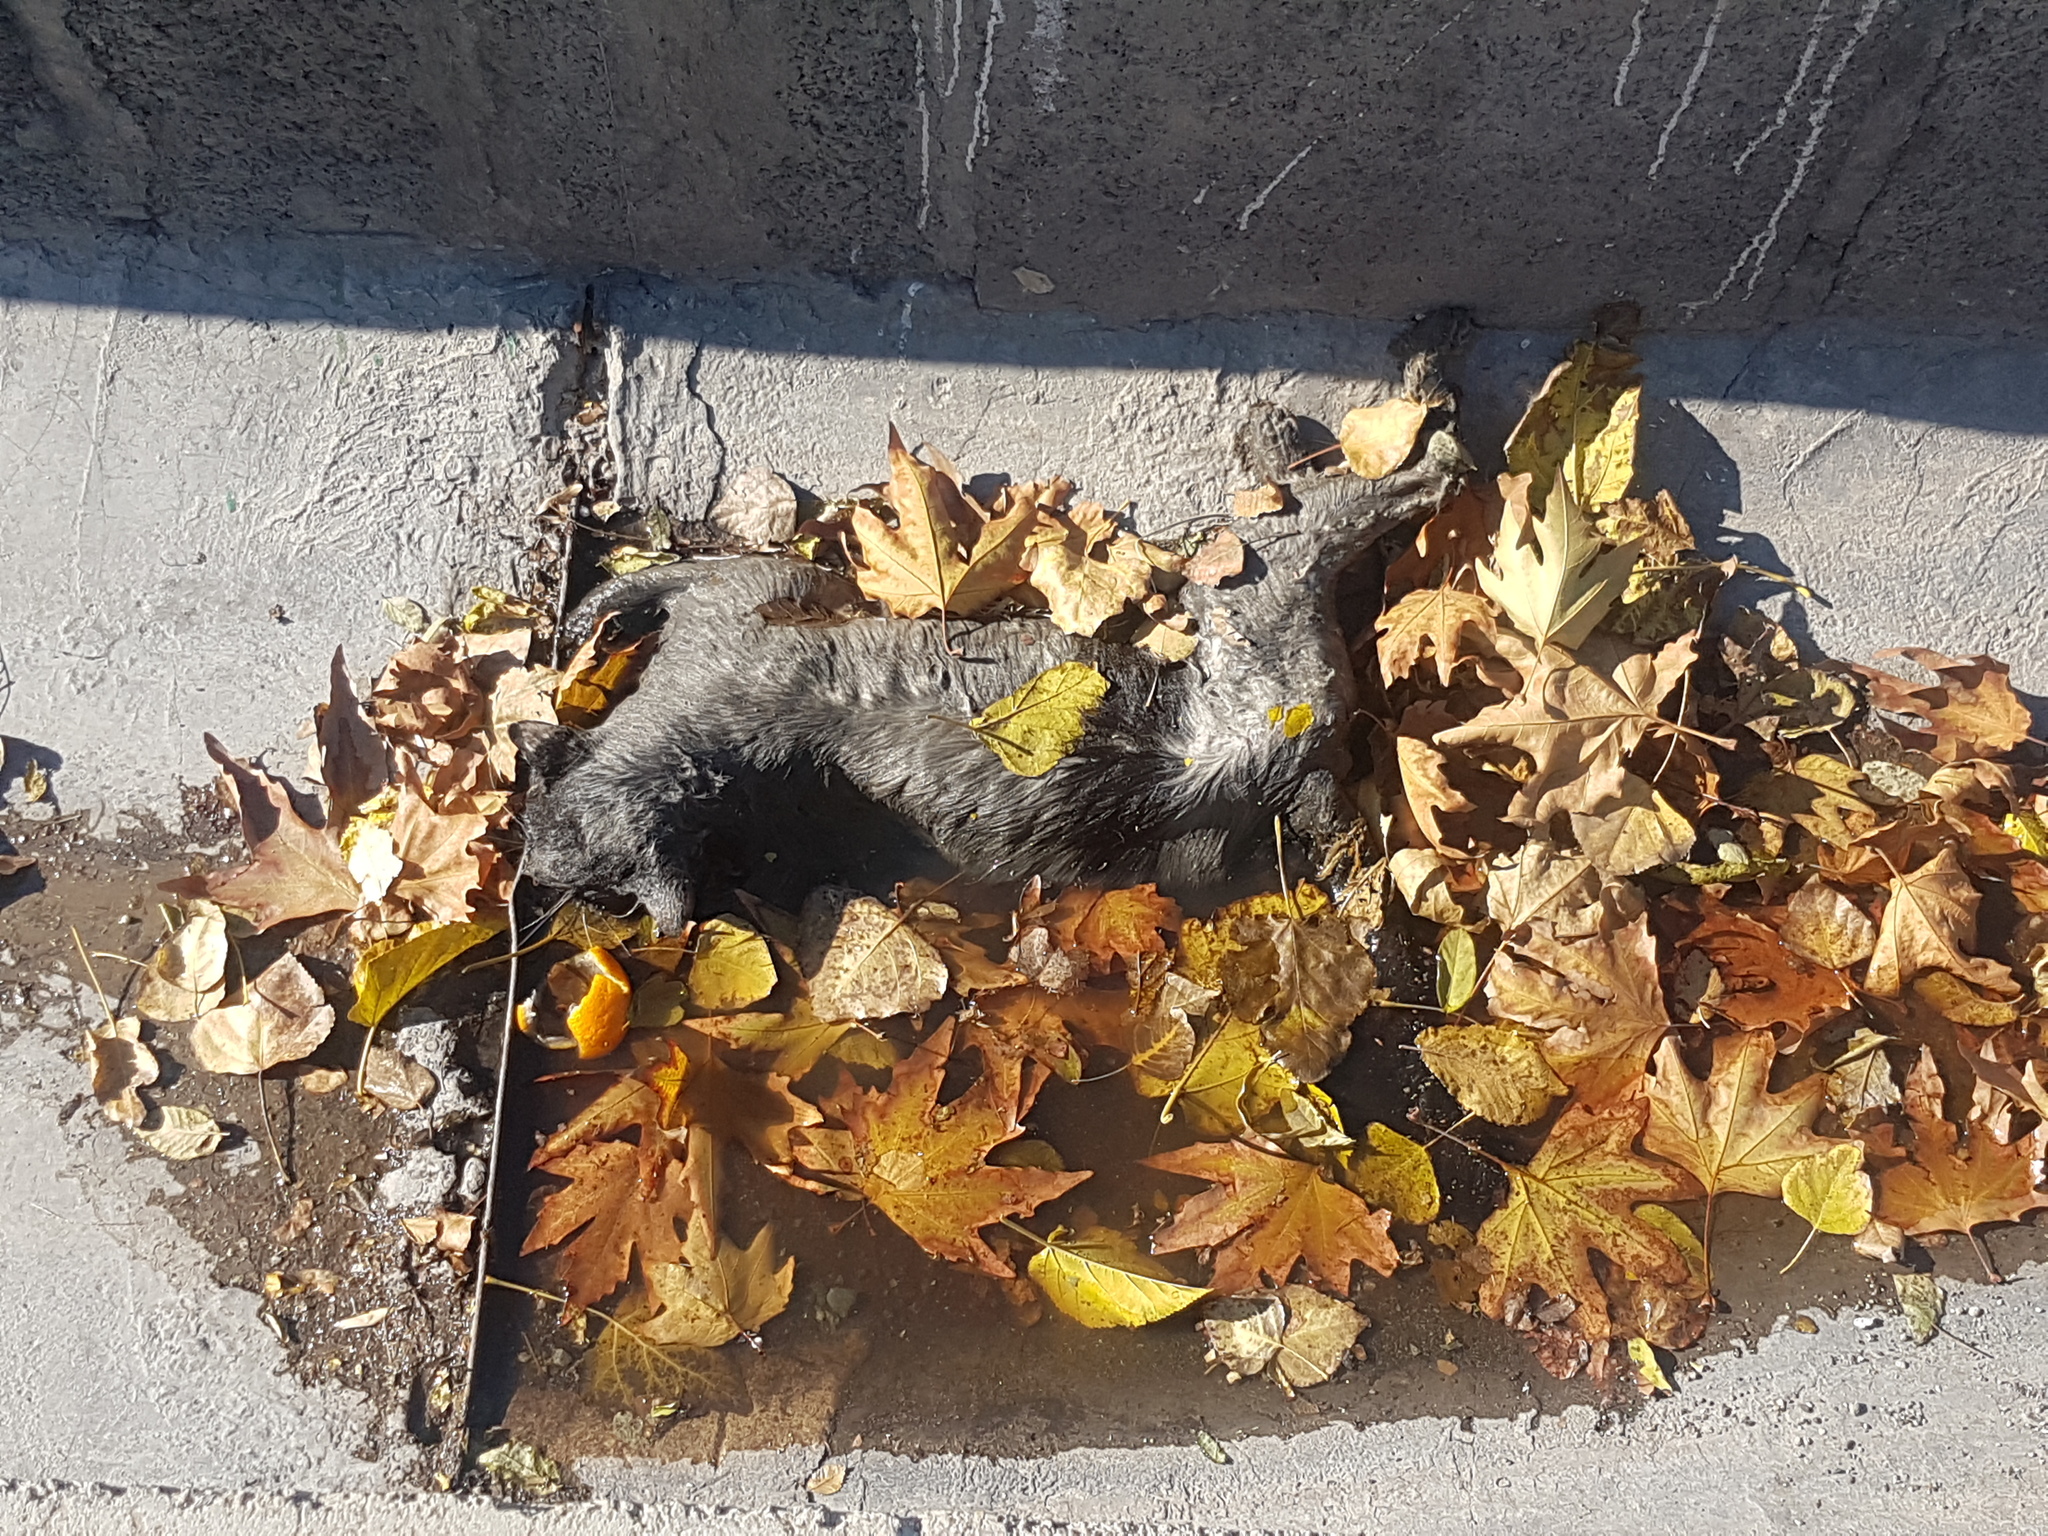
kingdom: Animalia
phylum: Chordata
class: Mammalia
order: Carnivora
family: Felidae
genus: Felis
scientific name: Felis catus
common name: Domestic cat
